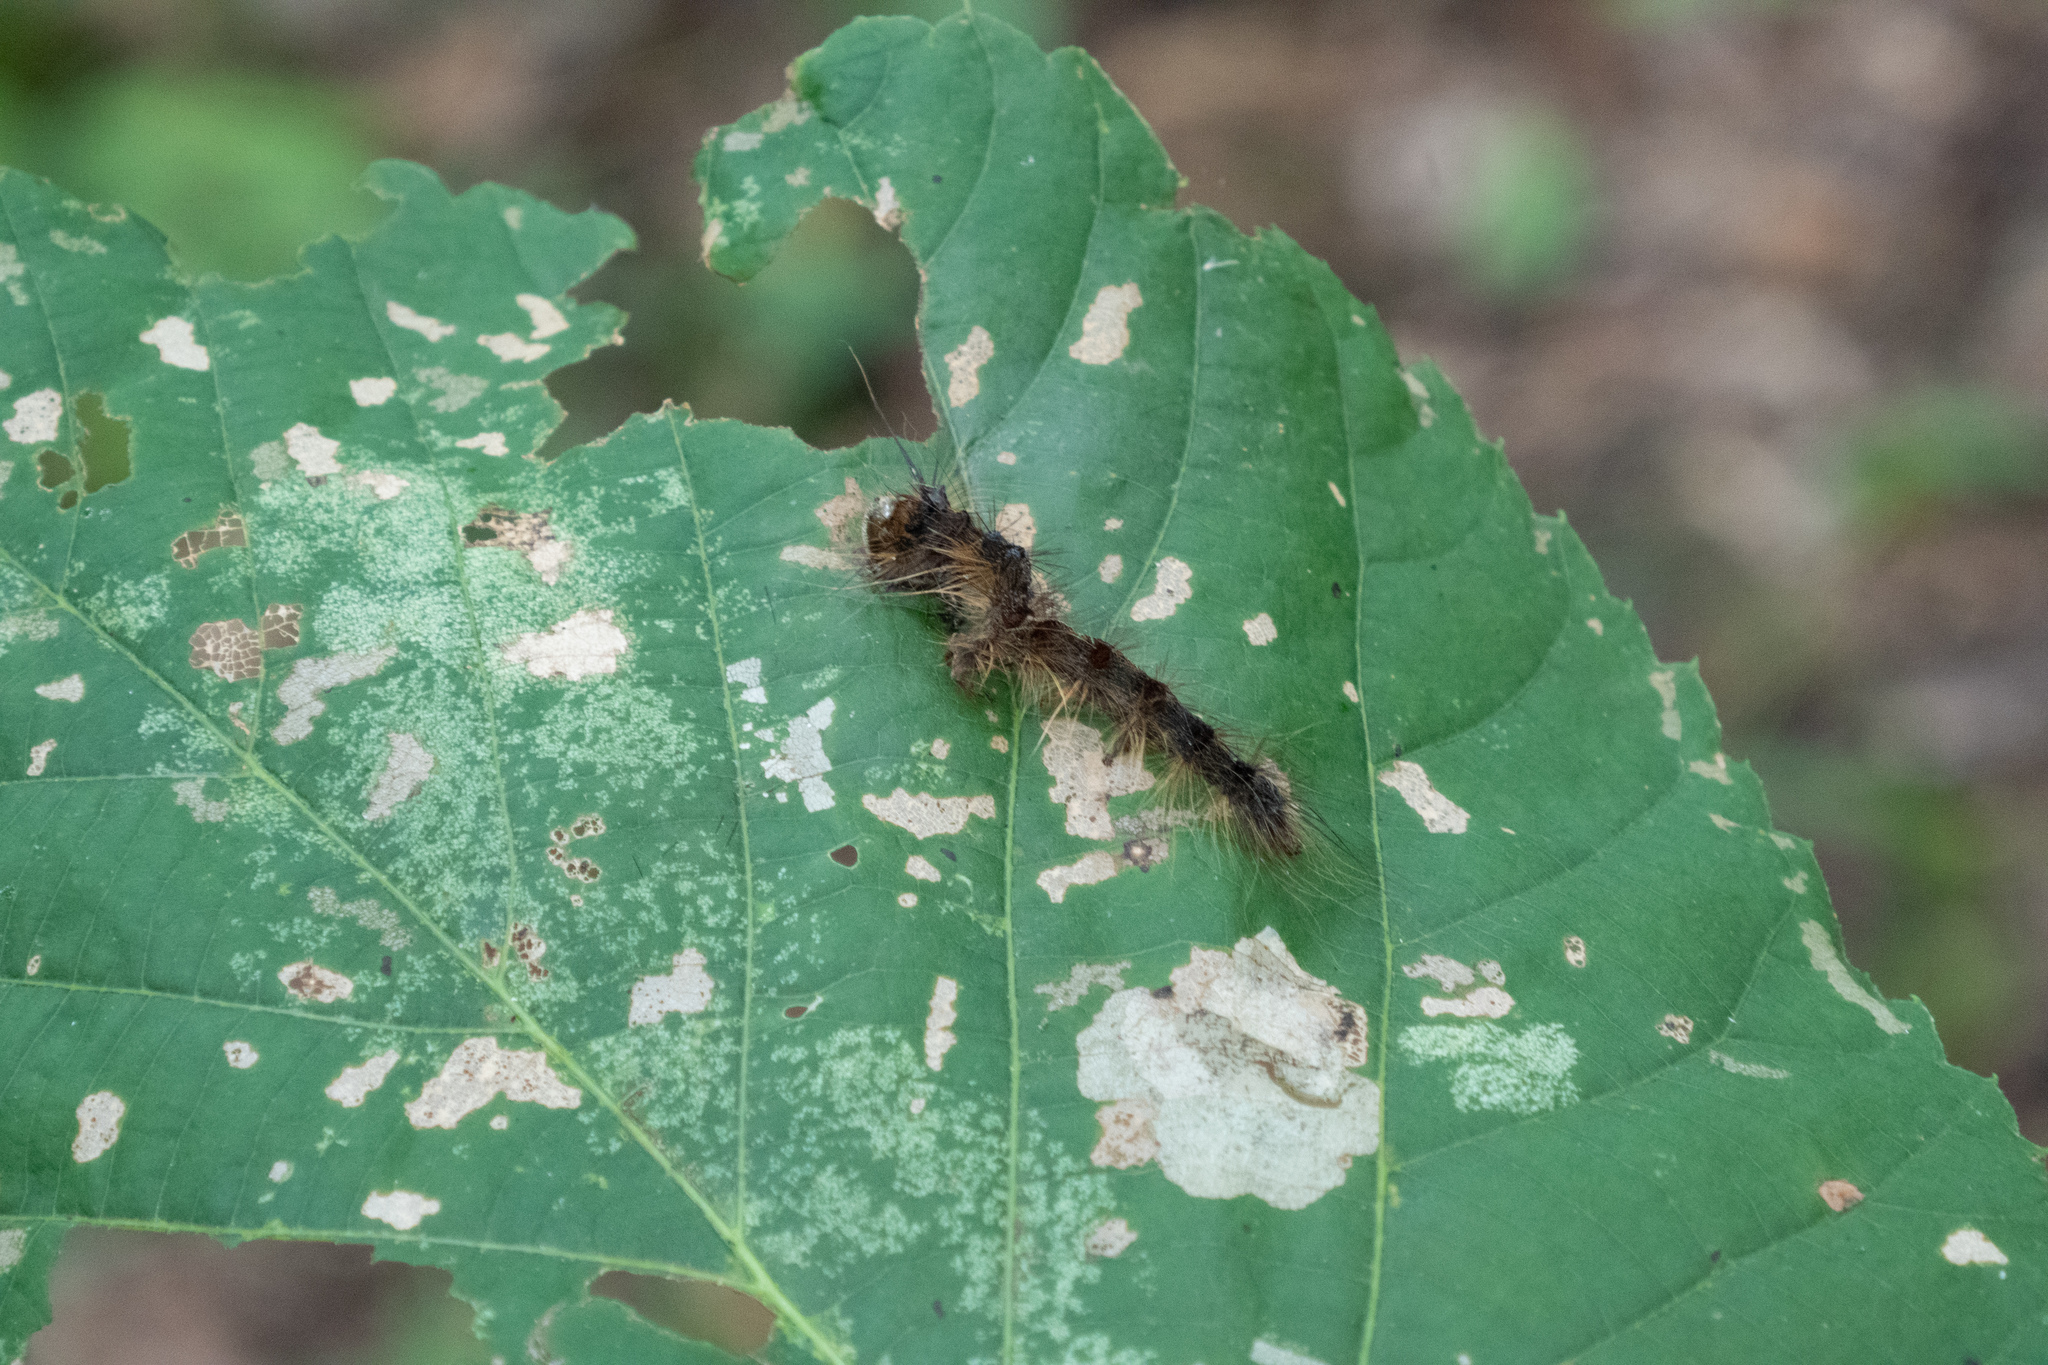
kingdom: Animalia
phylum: Arthropoda
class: Insecta
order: Lepidoptera
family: Erebidae
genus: Lymantria
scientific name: Lymantria dispar
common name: Gypsy moth
